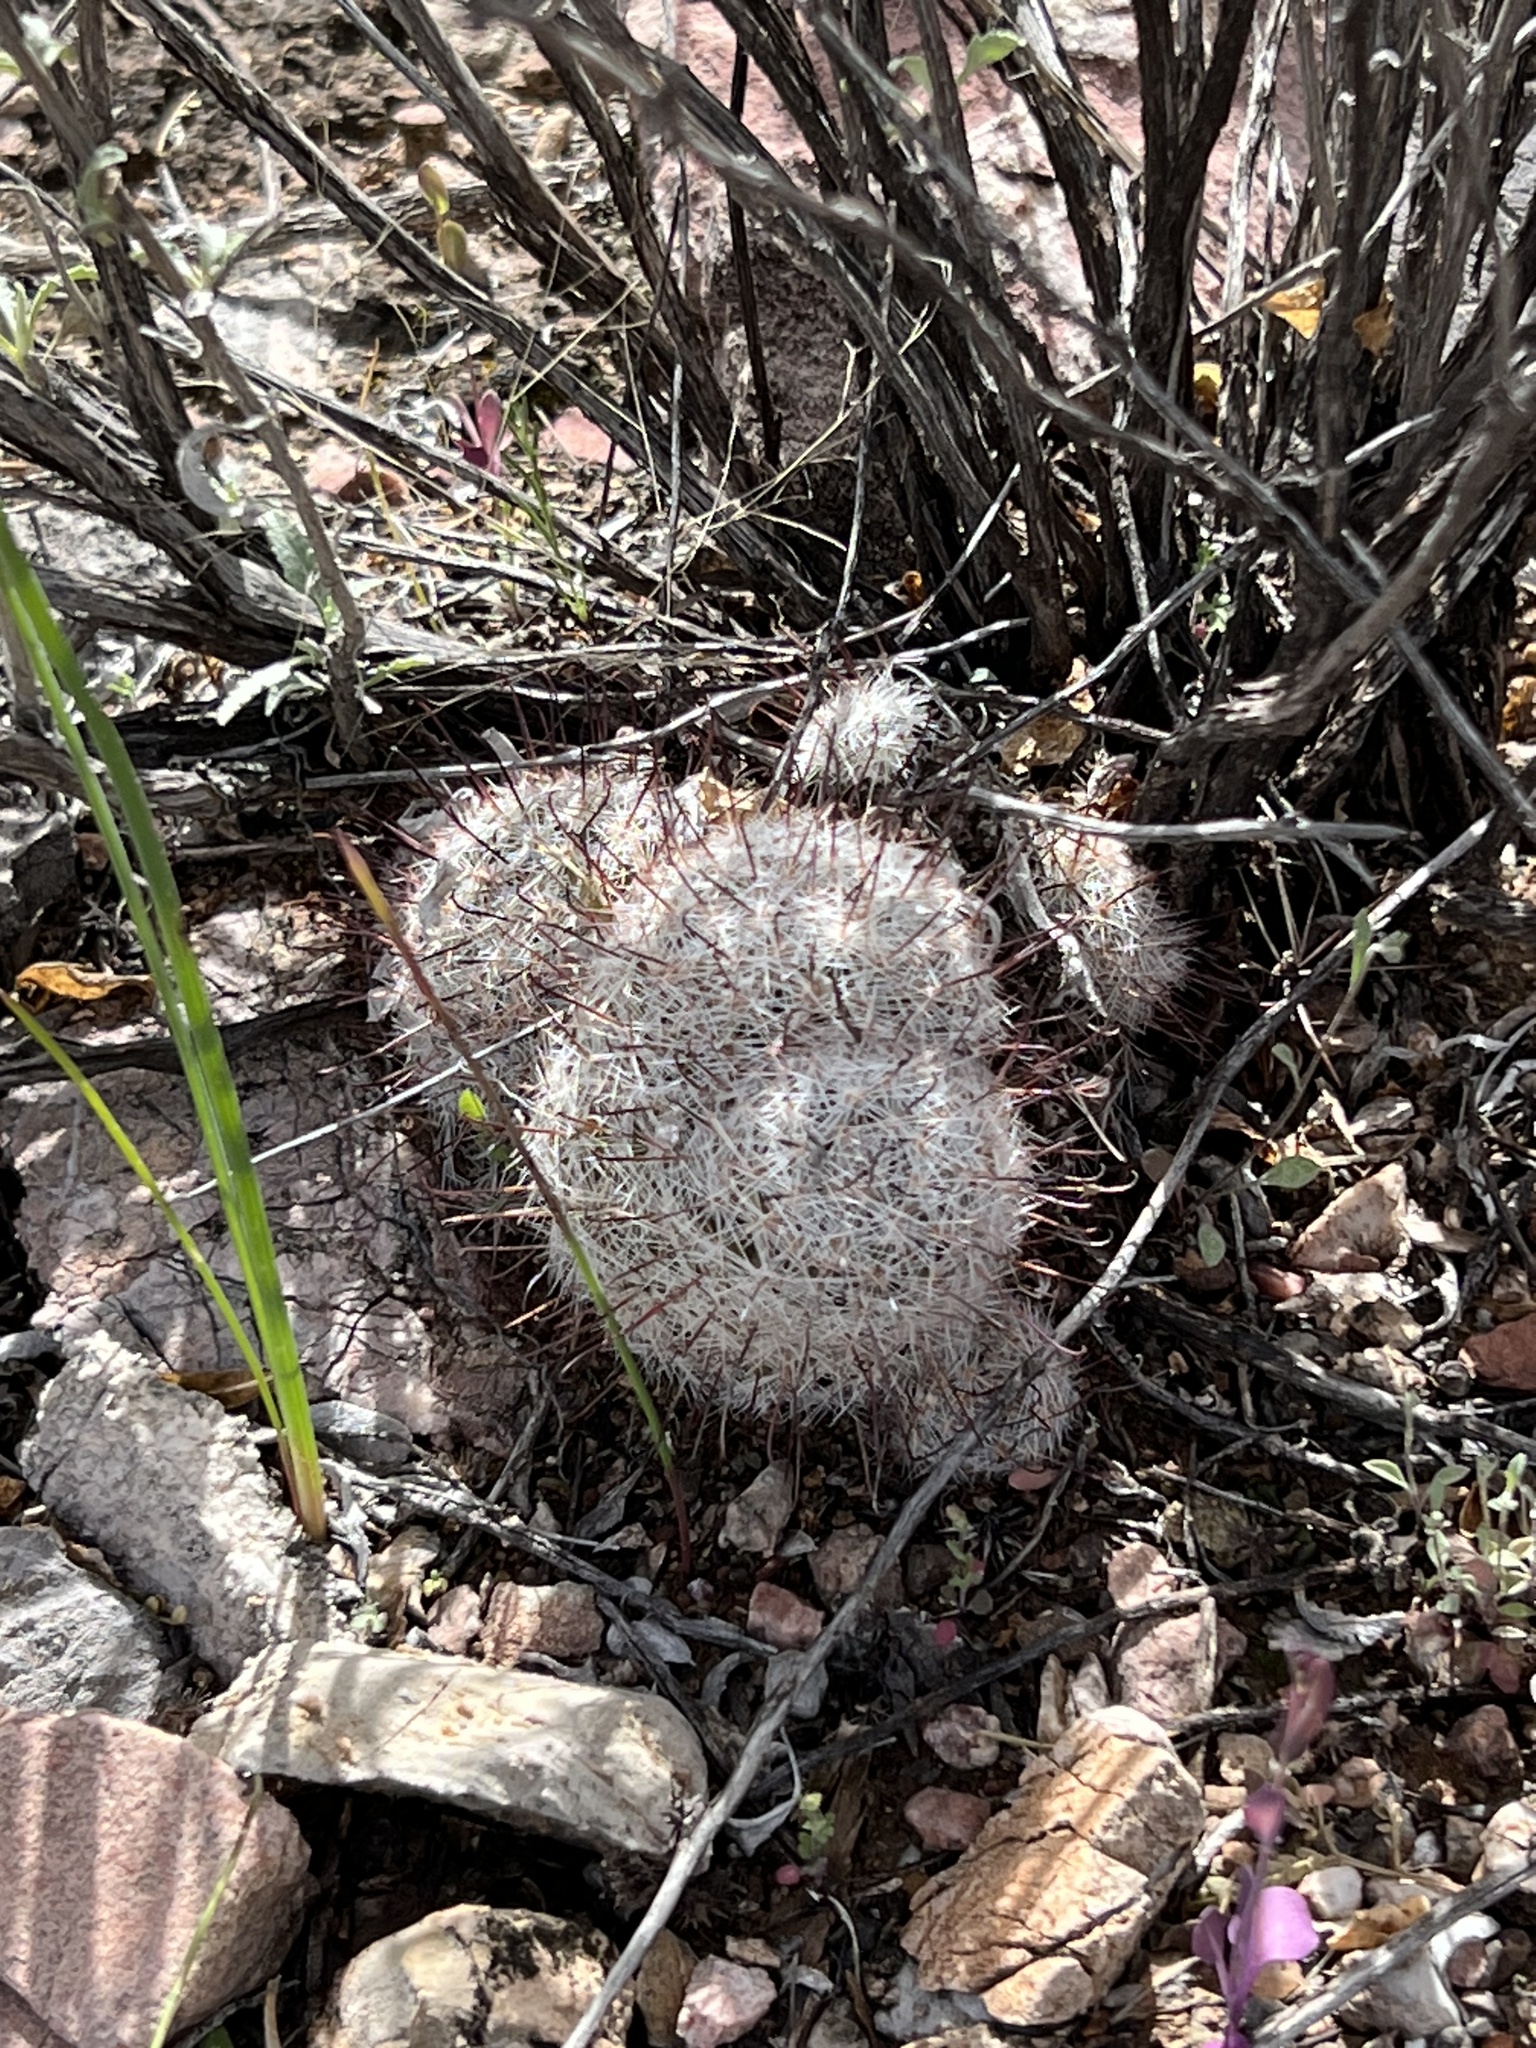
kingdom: Plantae
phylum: Tracheophyta
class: Magnoliopsida
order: Caryophyllales
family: Cactaceae
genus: Cochemiea
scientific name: Cochemiea grahamii
